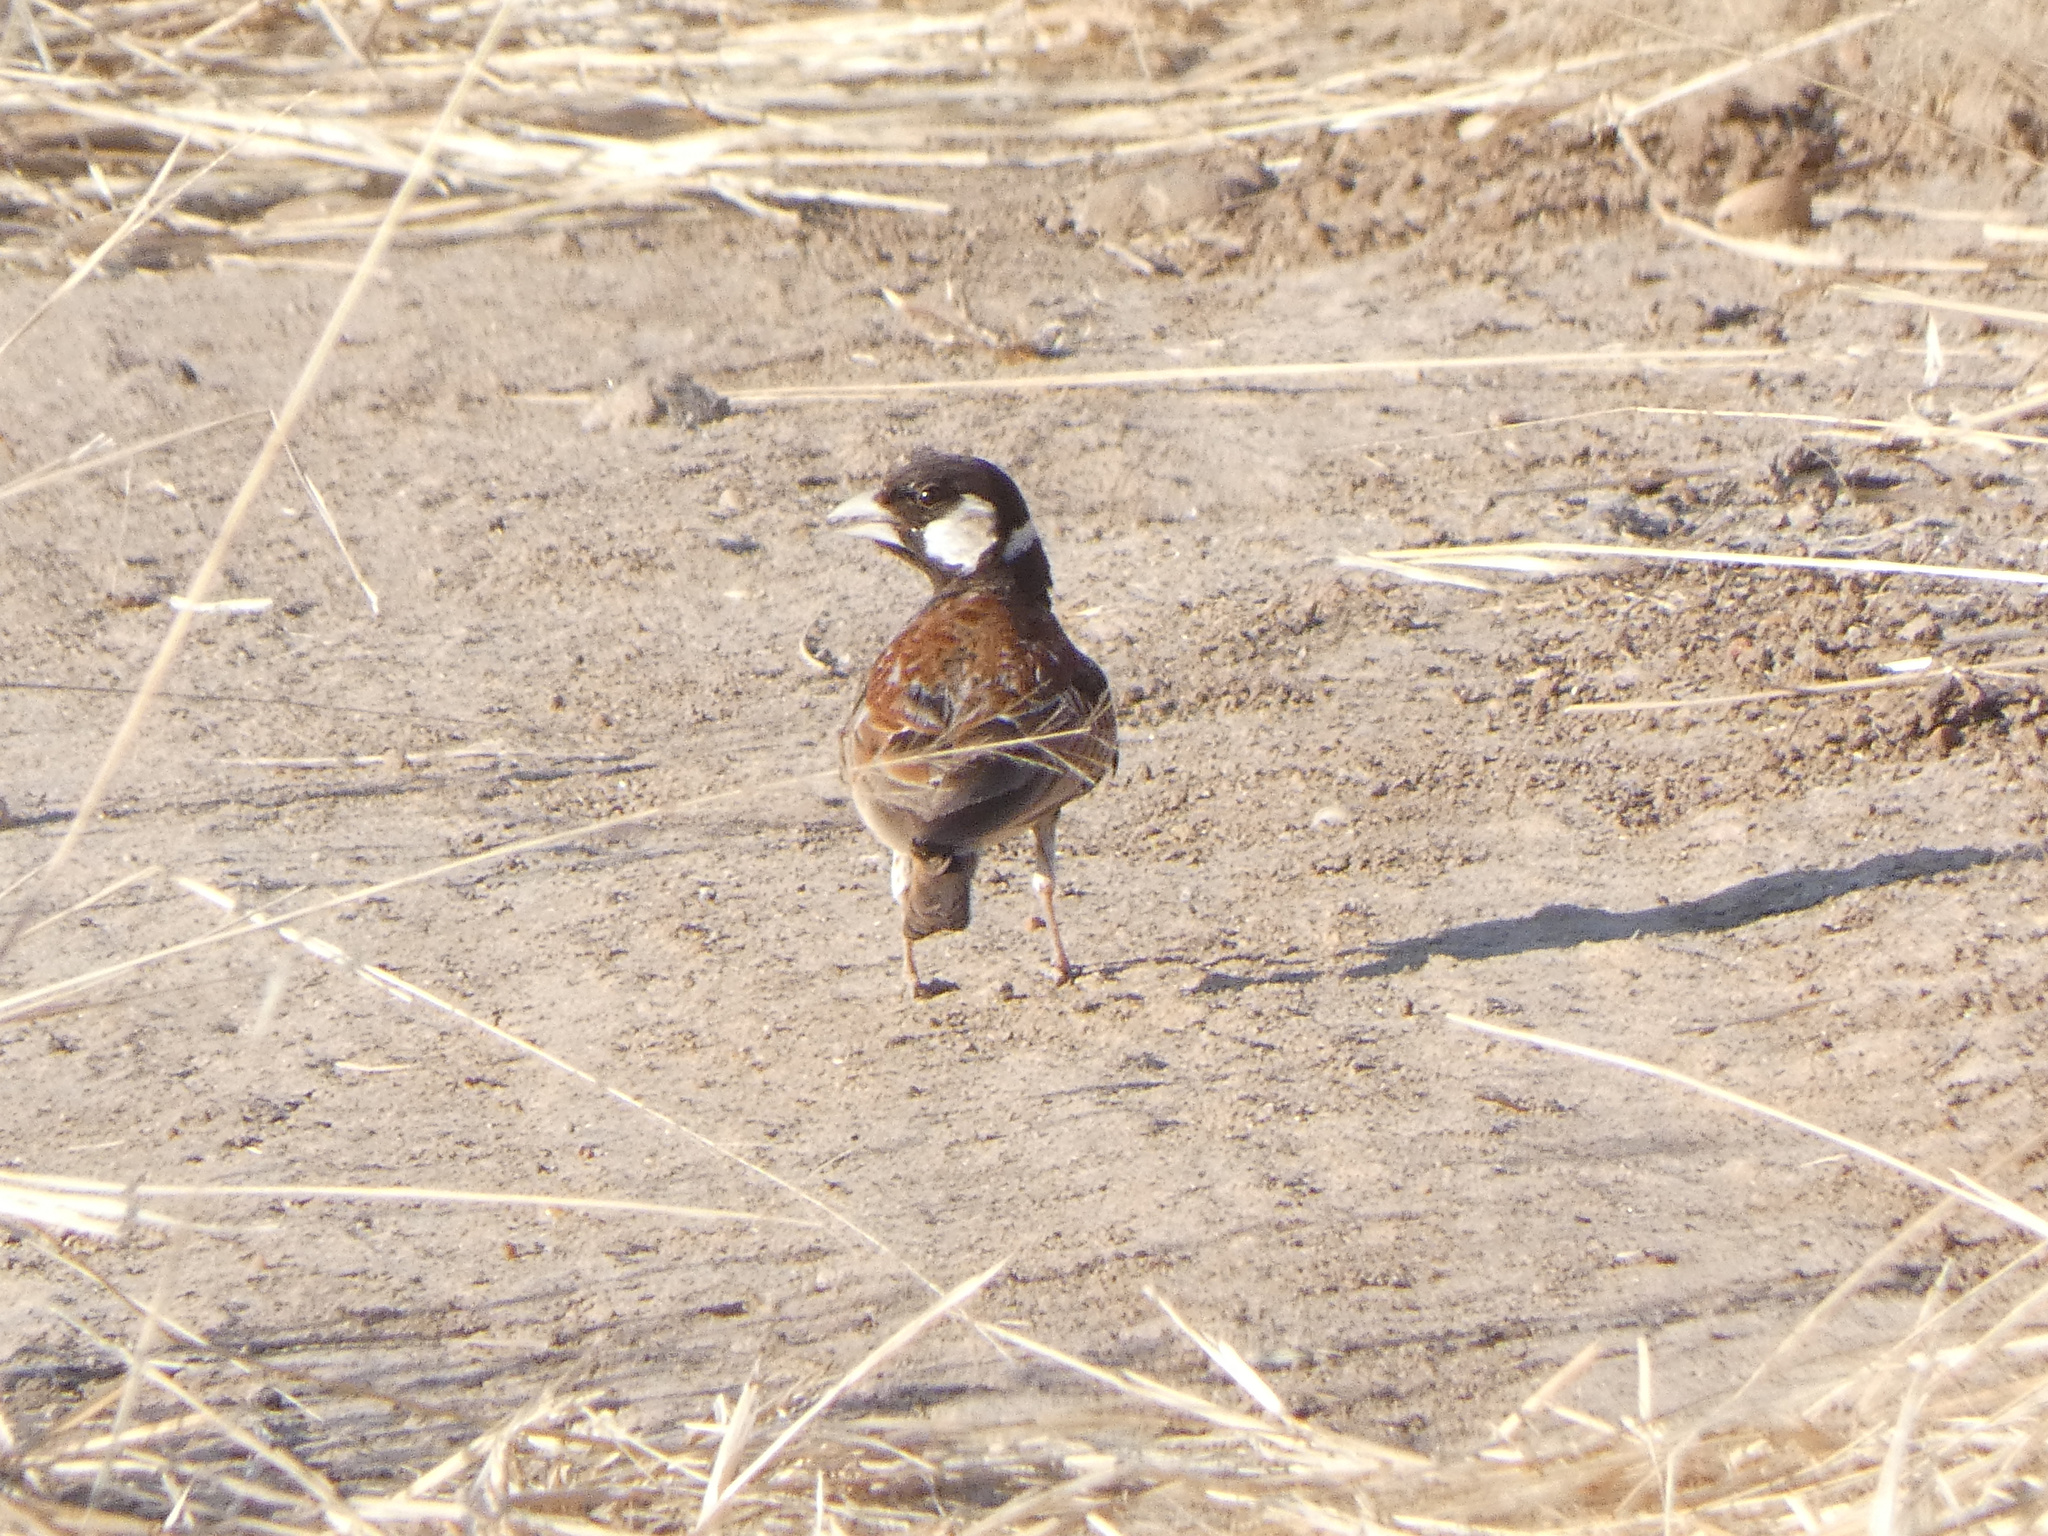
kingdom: Animalia
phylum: Chordata
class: Aves
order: Passeriformes
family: Alaudidae
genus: Eremopterix
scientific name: Eremopterix leucotis
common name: Chestnut-backed sparrow-lark
